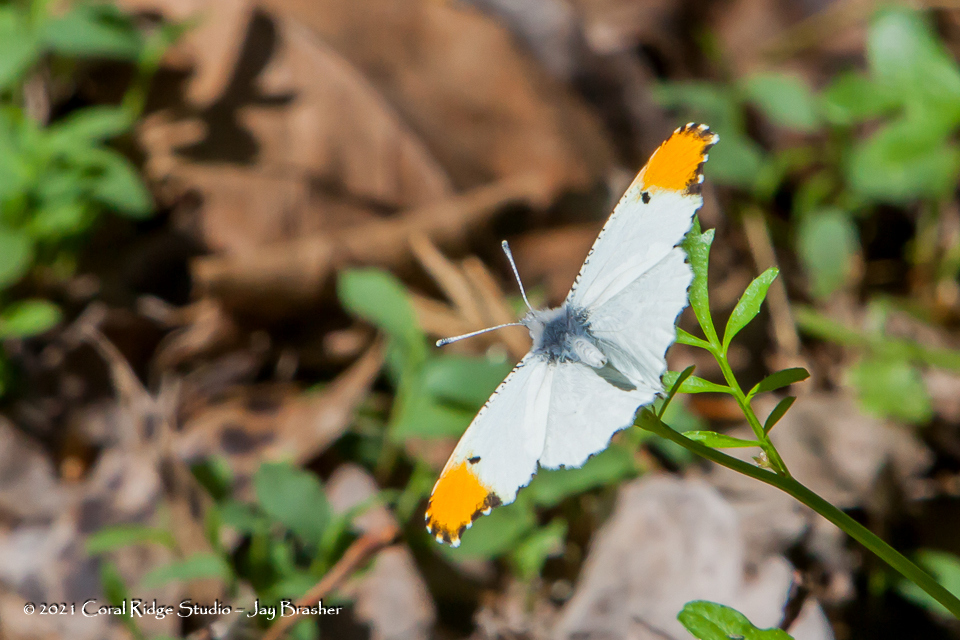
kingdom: Animalia
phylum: Arthropoda
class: Insecta
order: Lepidoptera
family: Pieridae
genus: Anthocharis
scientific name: Anthocharis midea
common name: Falcate orangetip
